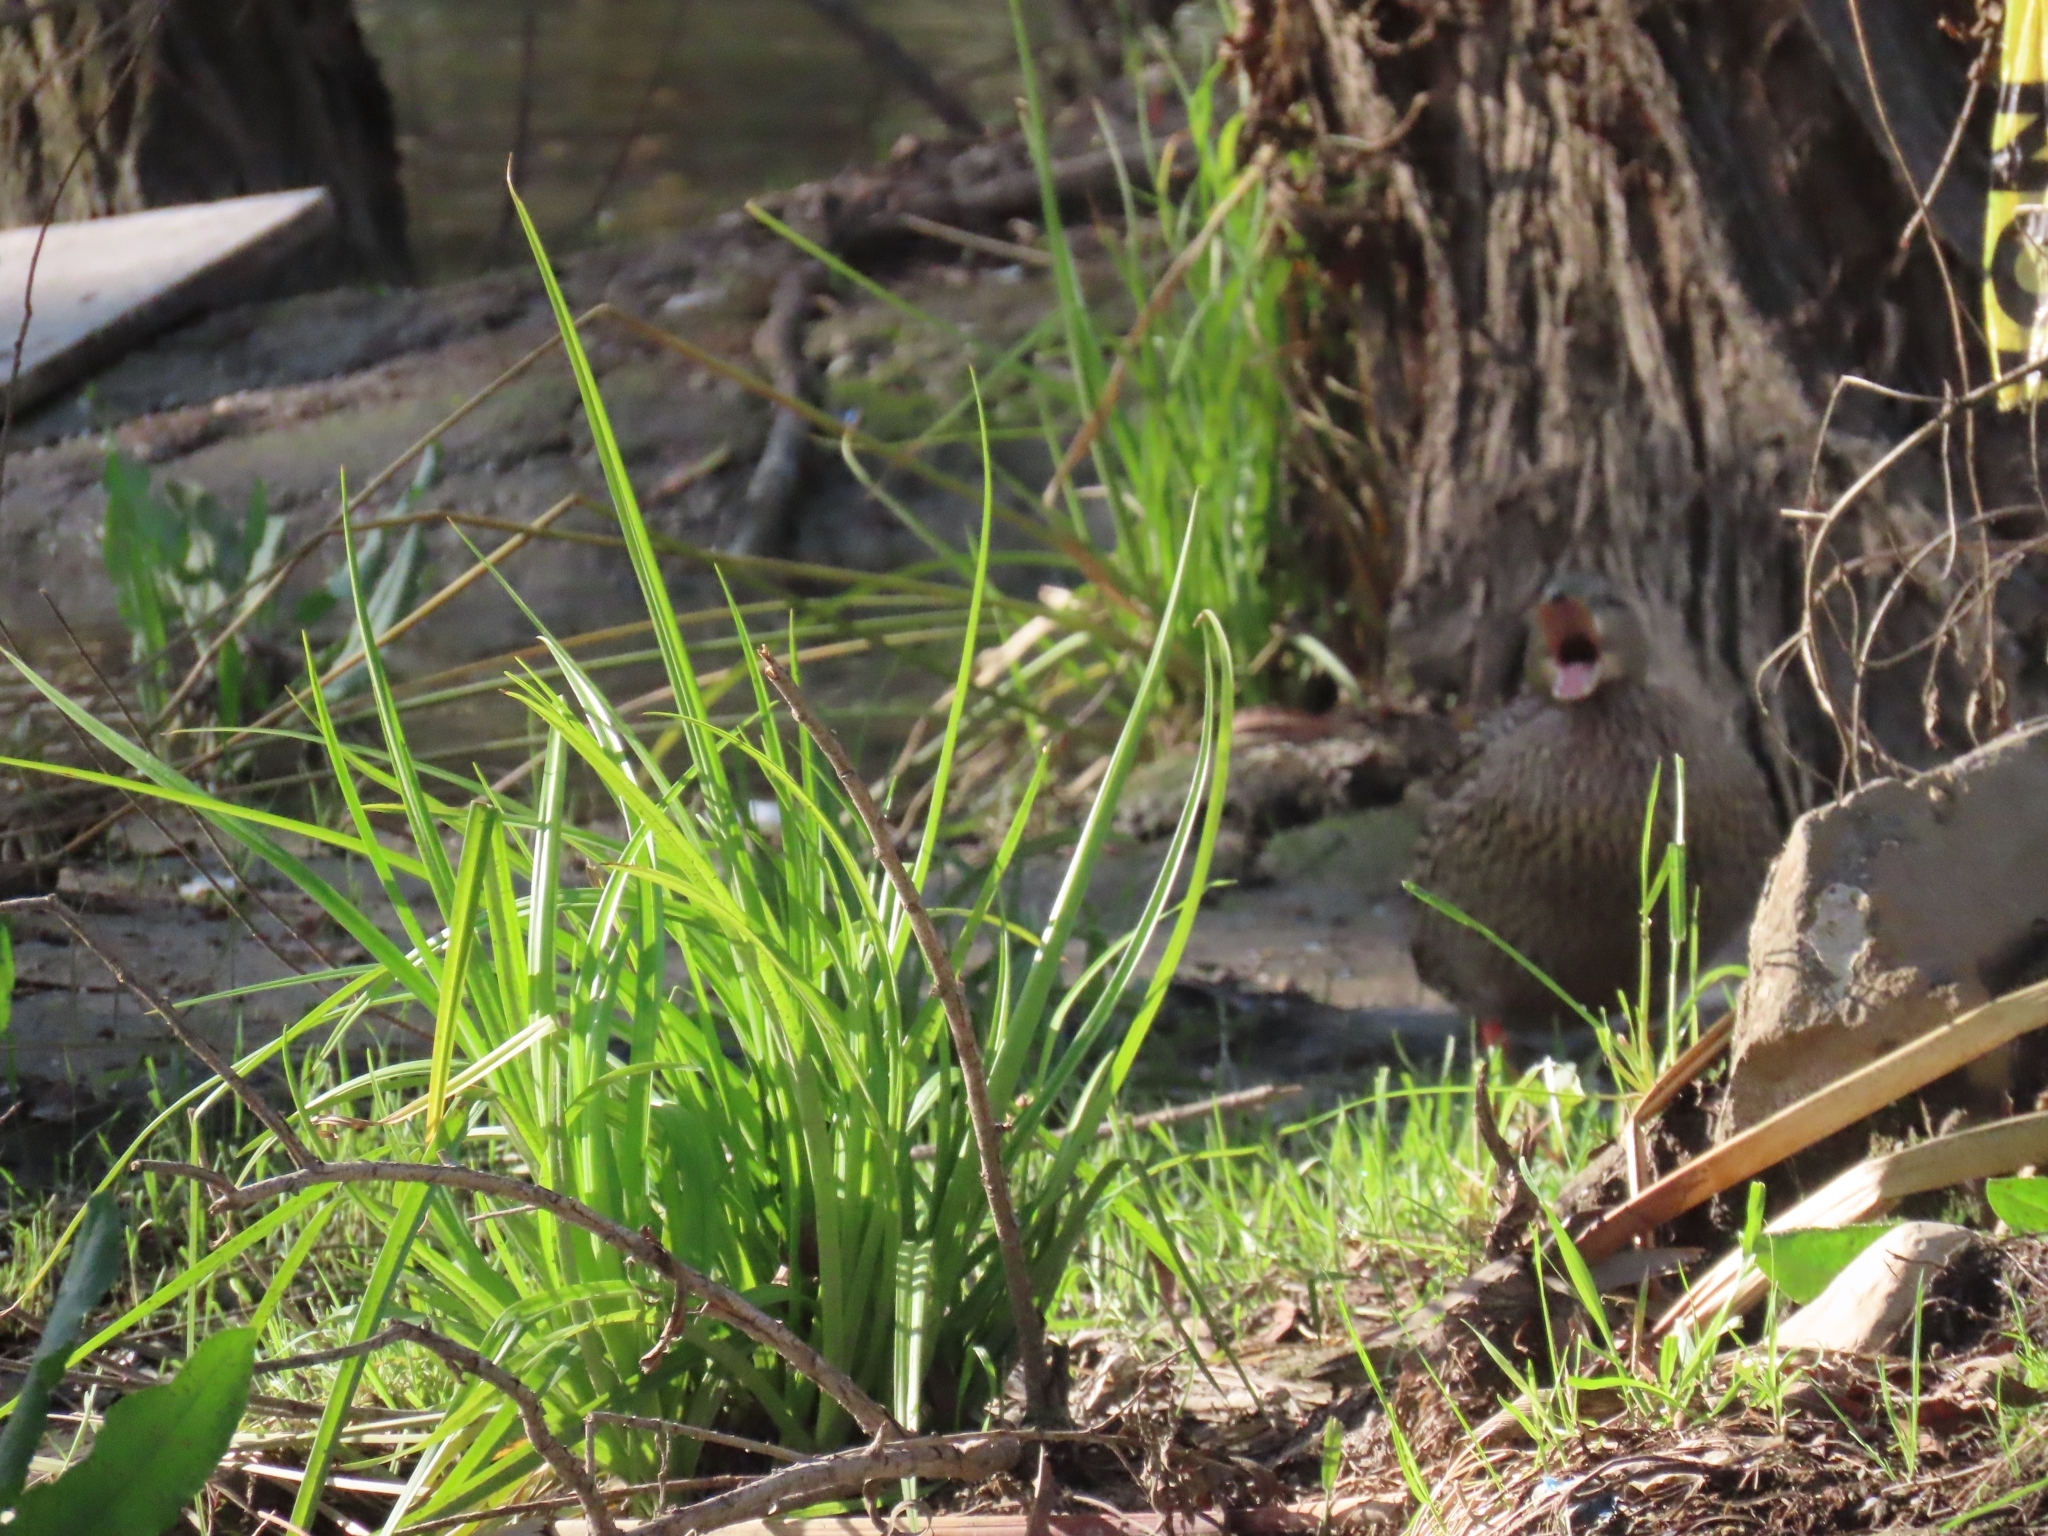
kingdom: Animalia
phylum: Chordata
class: Aves
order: Anseriformes
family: Anatidae
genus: Anas
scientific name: Anas platyrhynchos
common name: Mallard
